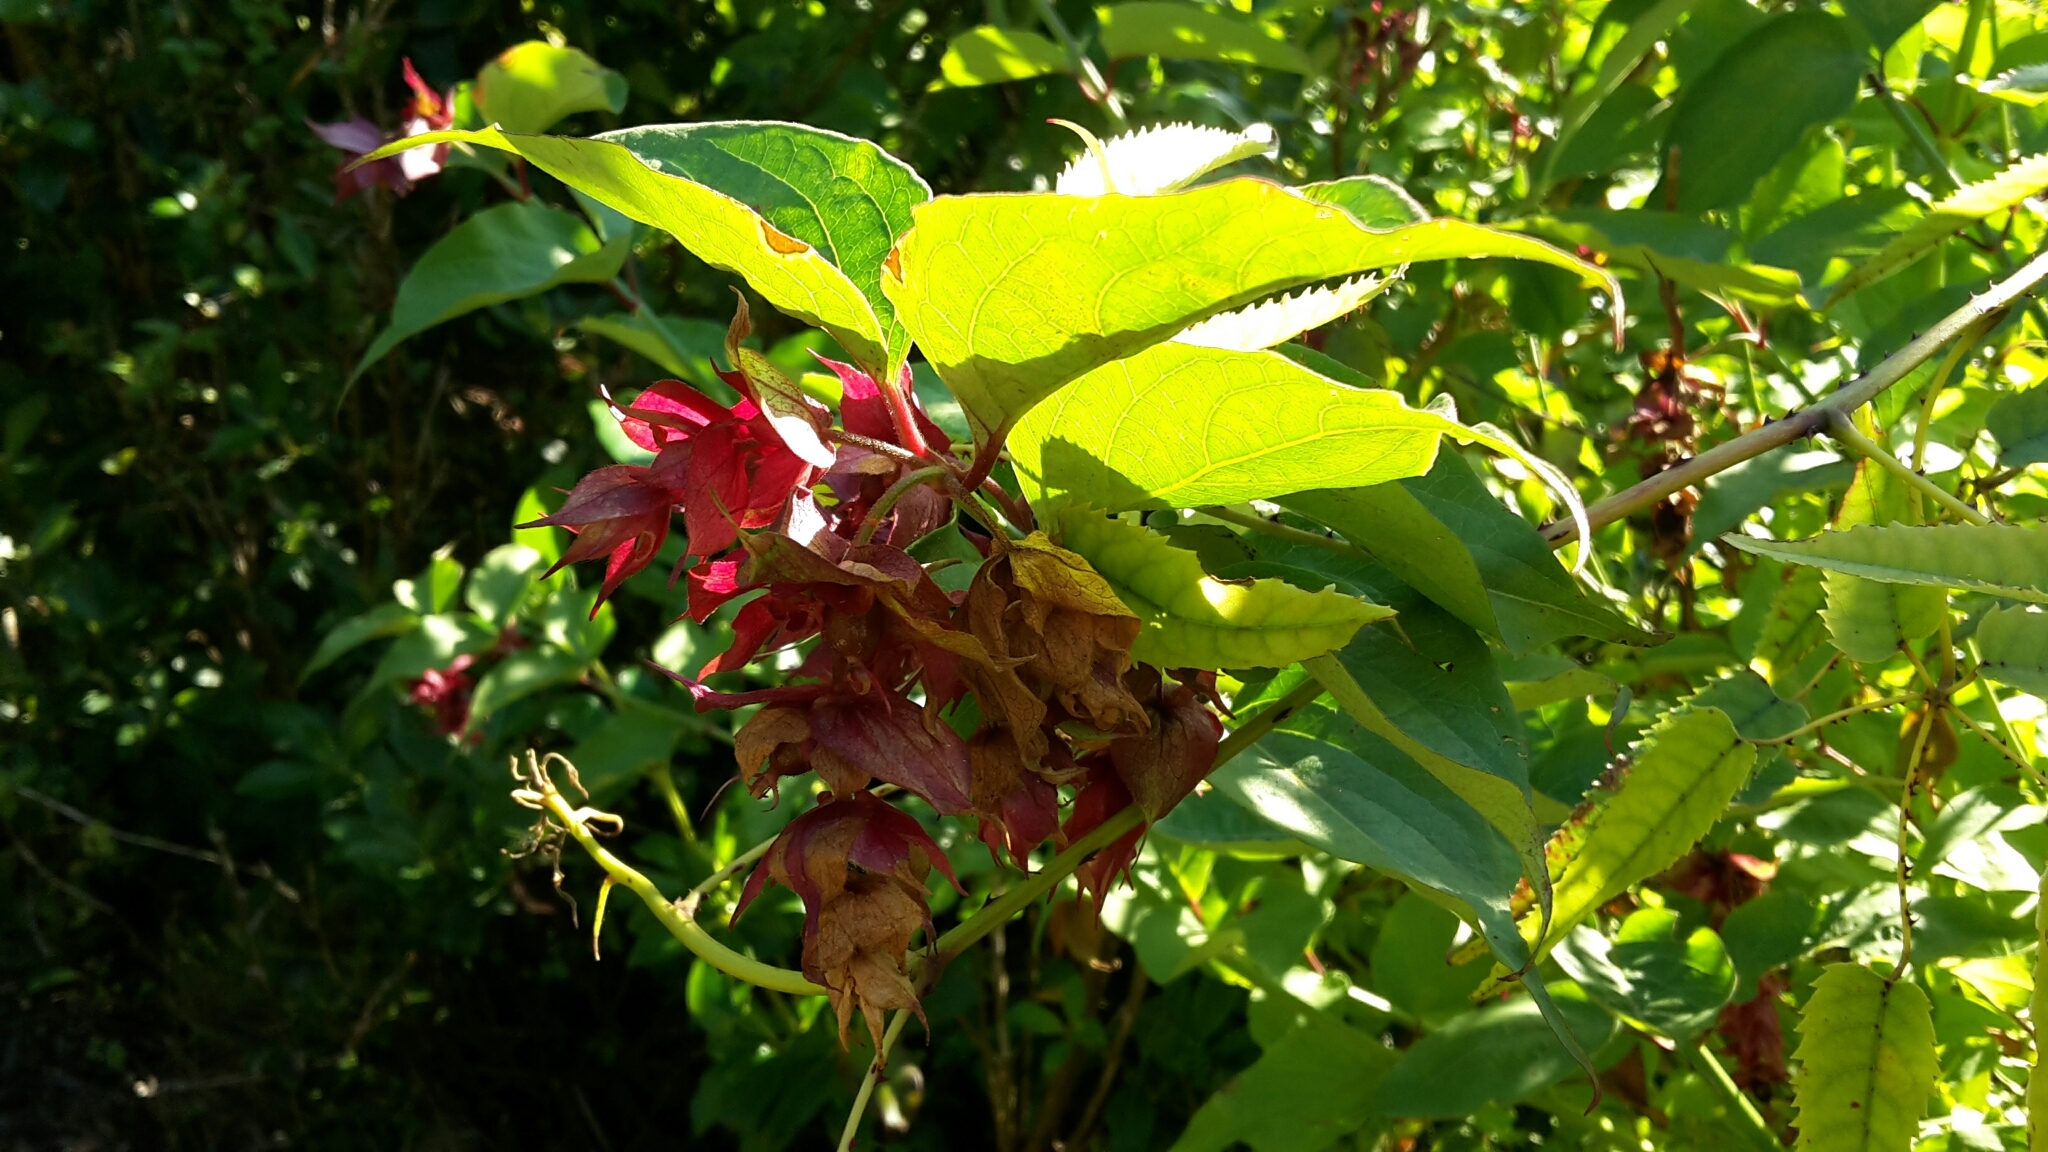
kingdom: Plantae
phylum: Tracheophyta
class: Magnoliopsida
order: Dipsacales
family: Caprifoliaceae
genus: Leycesteria
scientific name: Leycesteria formosa
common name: Himalayan honeysuckle
